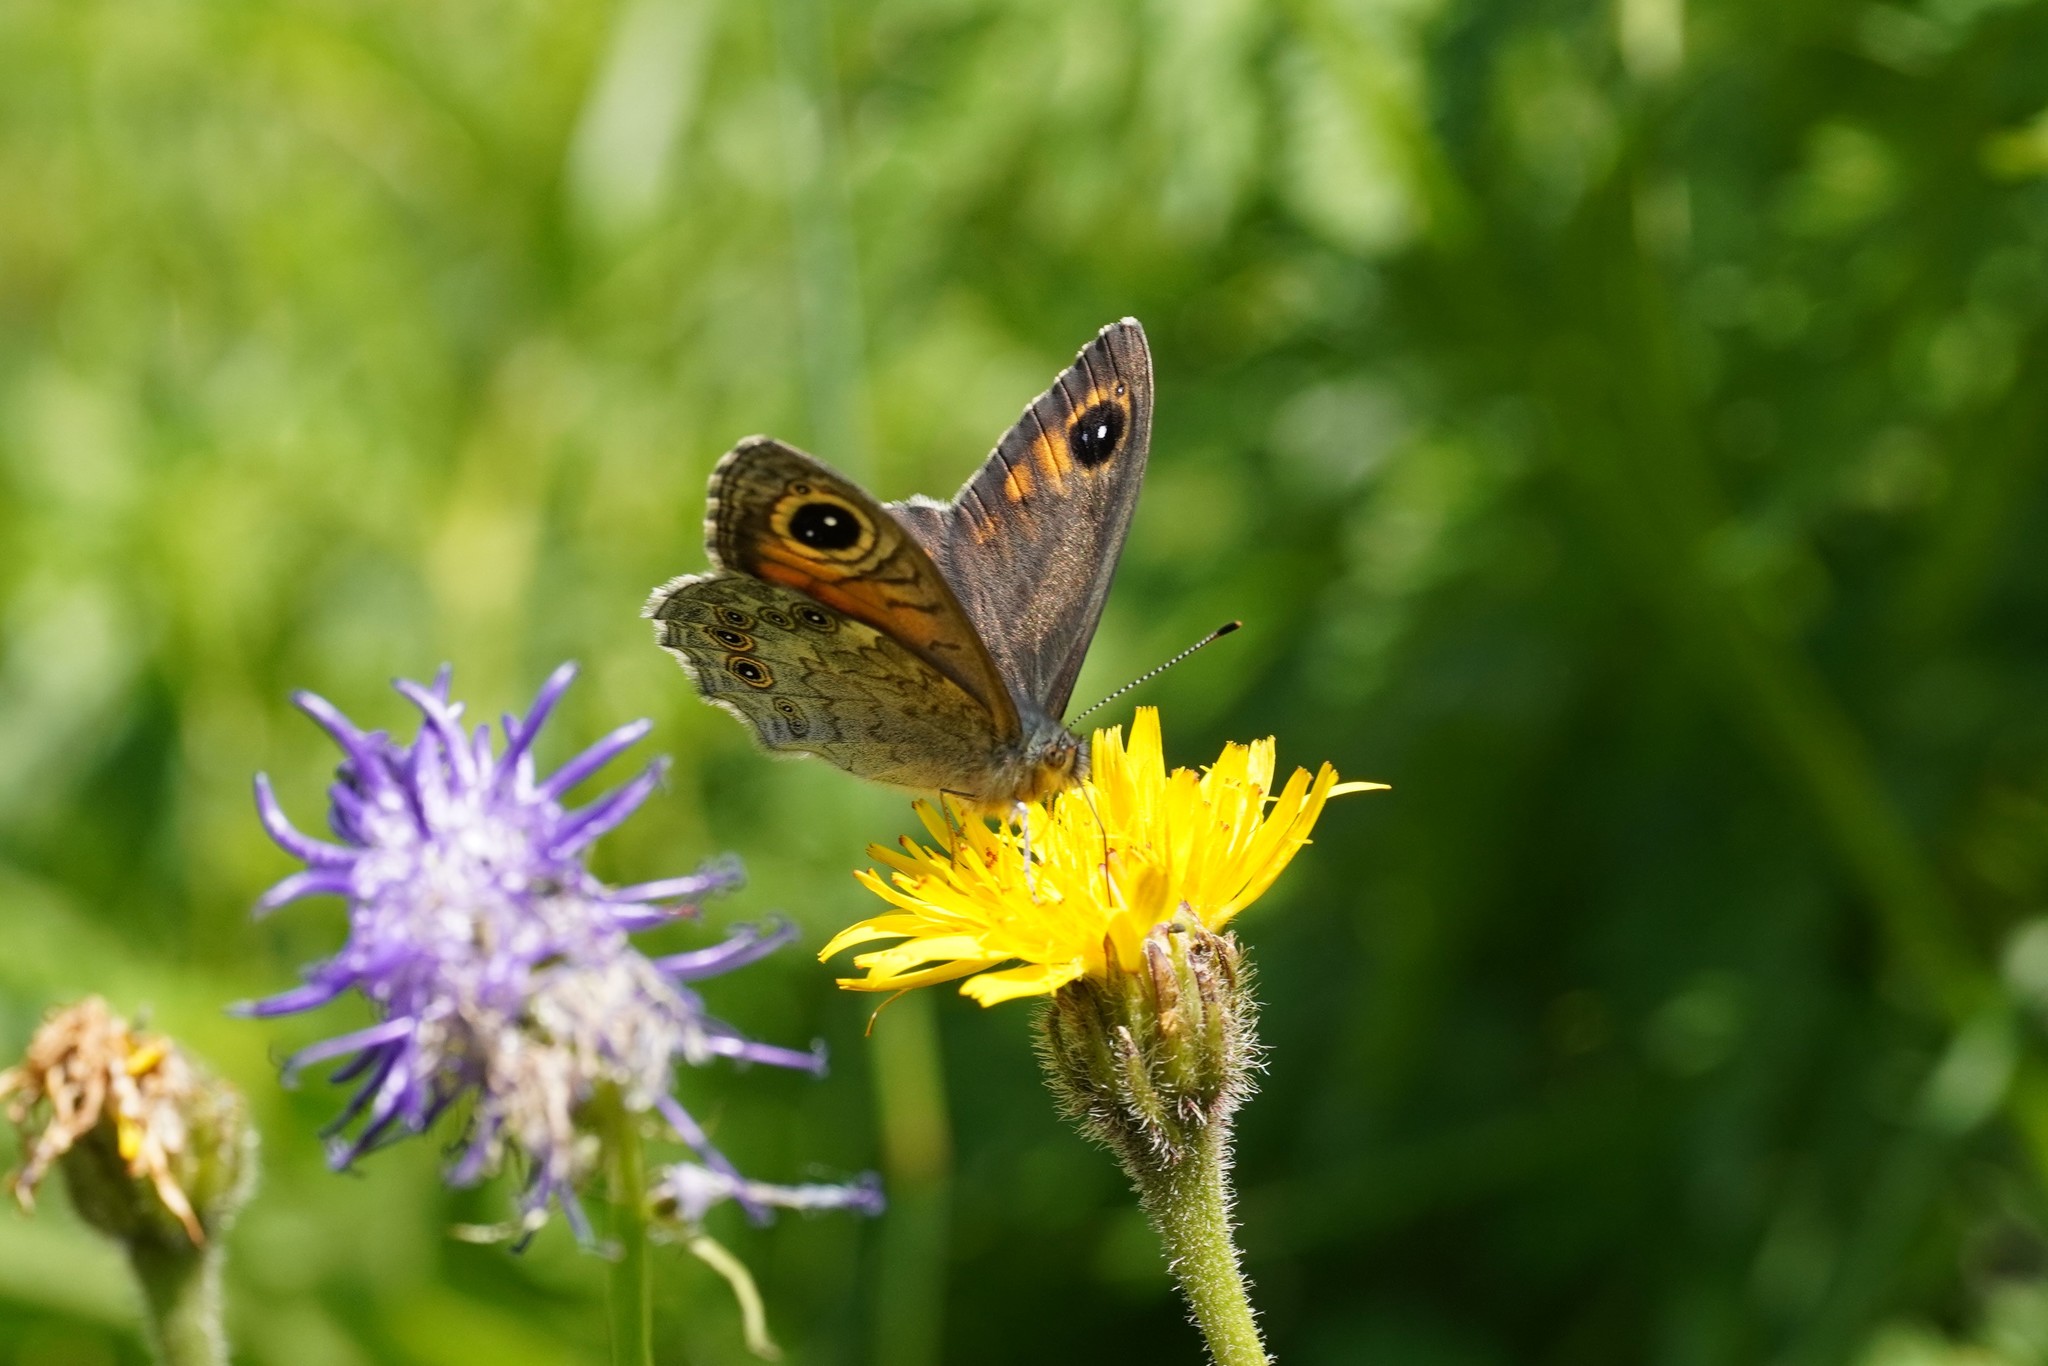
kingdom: Animalia
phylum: Arthropoda
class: Insecta
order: Lepidoptera
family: Nymphalidae
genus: Pararge
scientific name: Pararge Lasiommata maera
